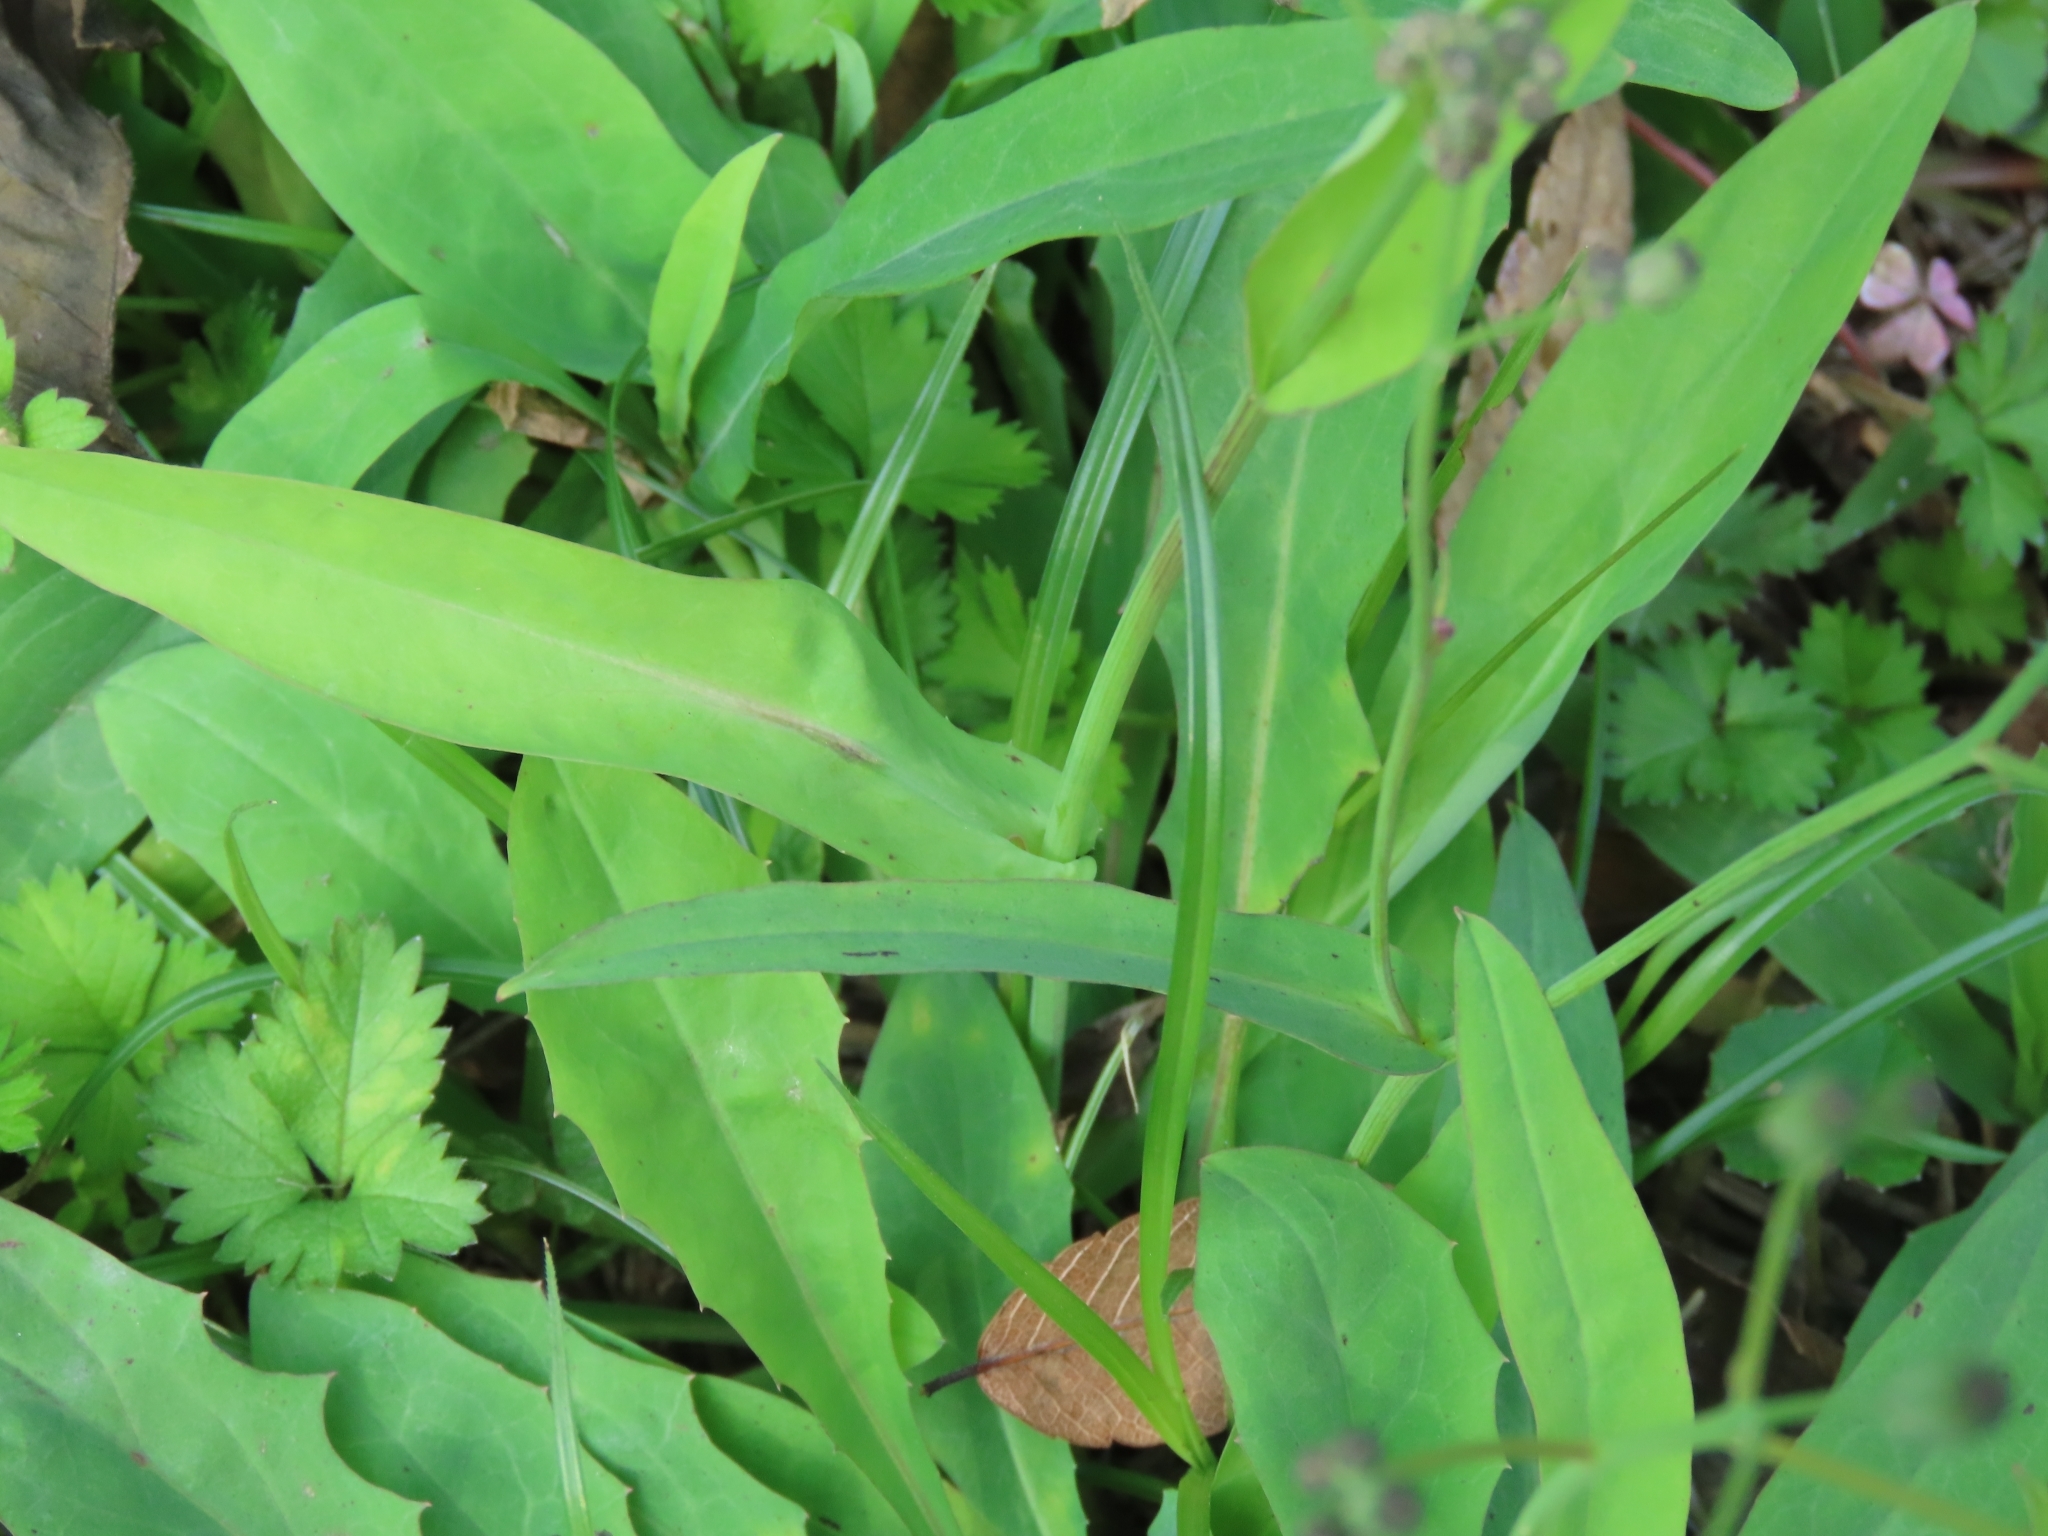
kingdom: Plantae
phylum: Tracheophyta
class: Magnoliopsida
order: Asterales
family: Asteraceae
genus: Ixeris
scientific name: Ixeris chinensis
